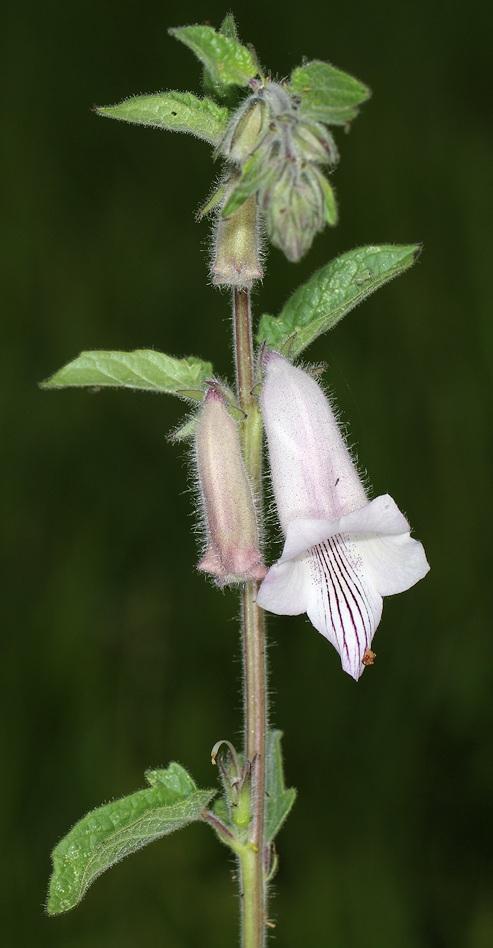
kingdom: Plantae
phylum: Tracheophyta
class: Magnoliopsida
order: Lamiales
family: Pedaliaceae
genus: Sesamum
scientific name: Sesamum trilobum
